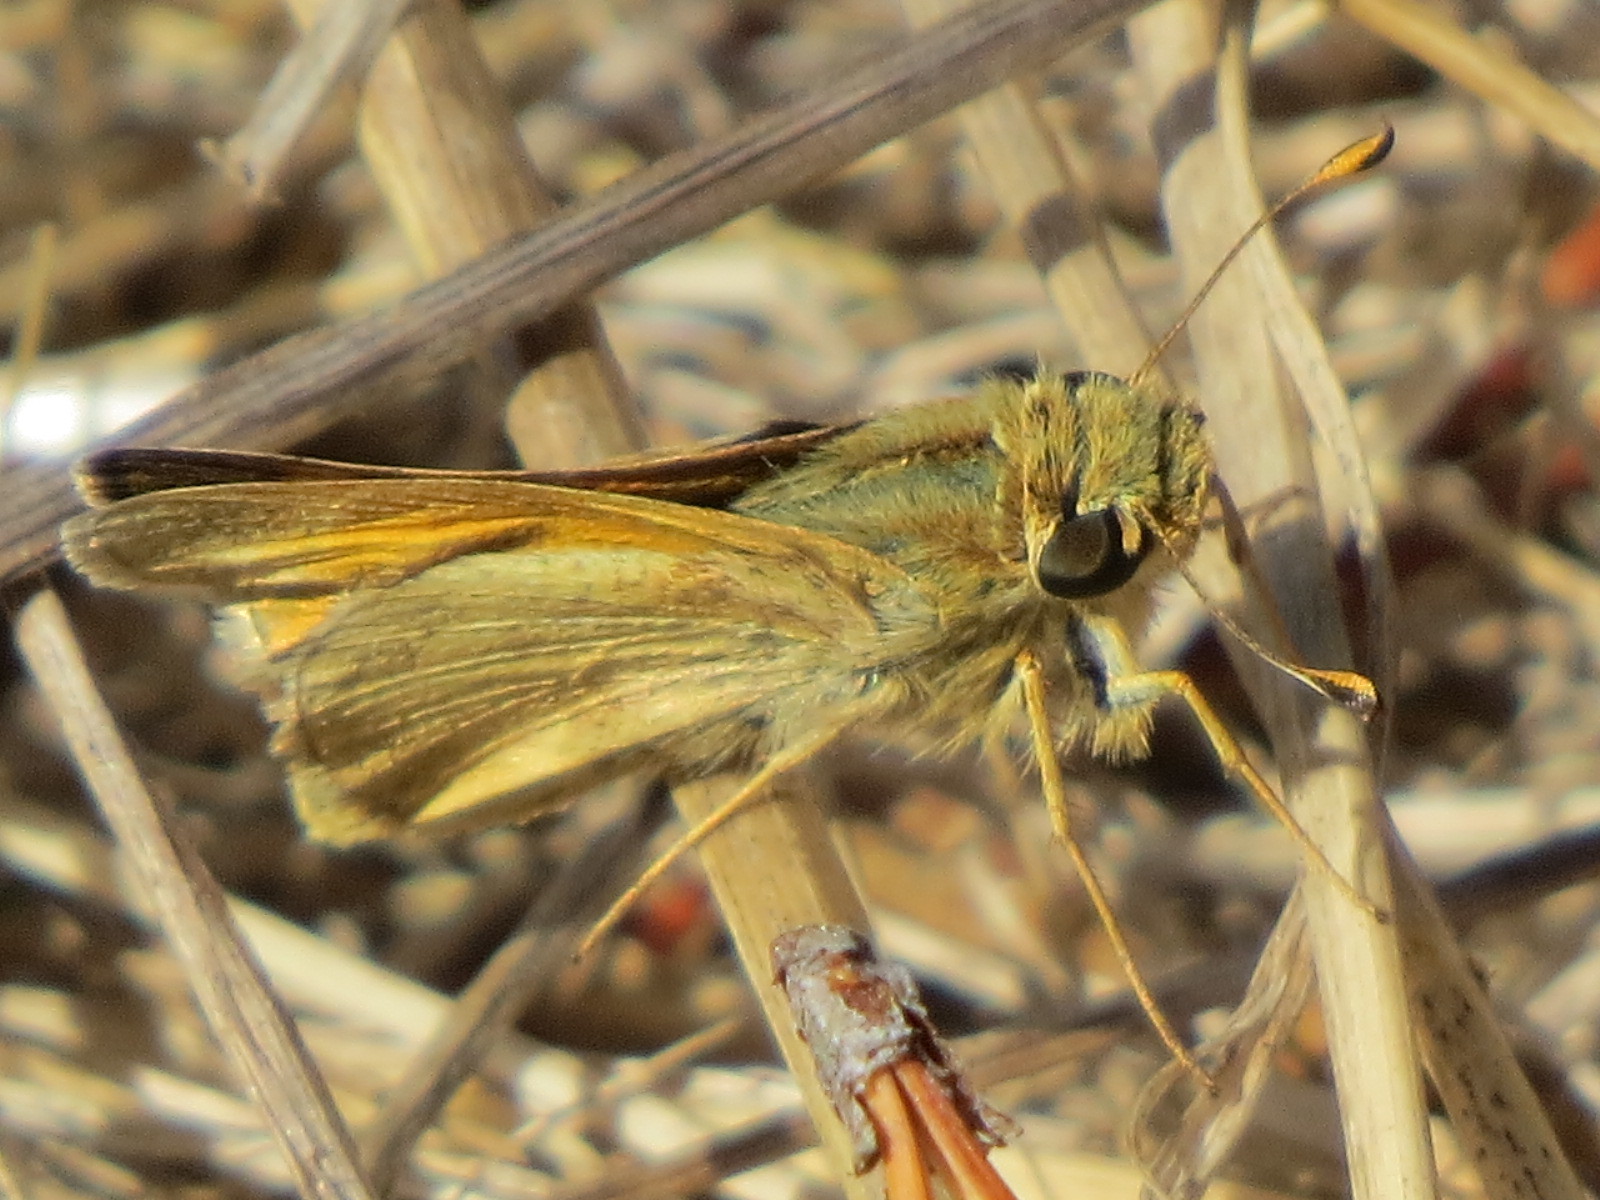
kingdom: Animalia
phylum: Arthropoda
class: Insecta
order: Lepidoptera
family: Hesperiidae
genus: Atalopedes
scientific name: Atalopedes campestris
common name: Sachem
